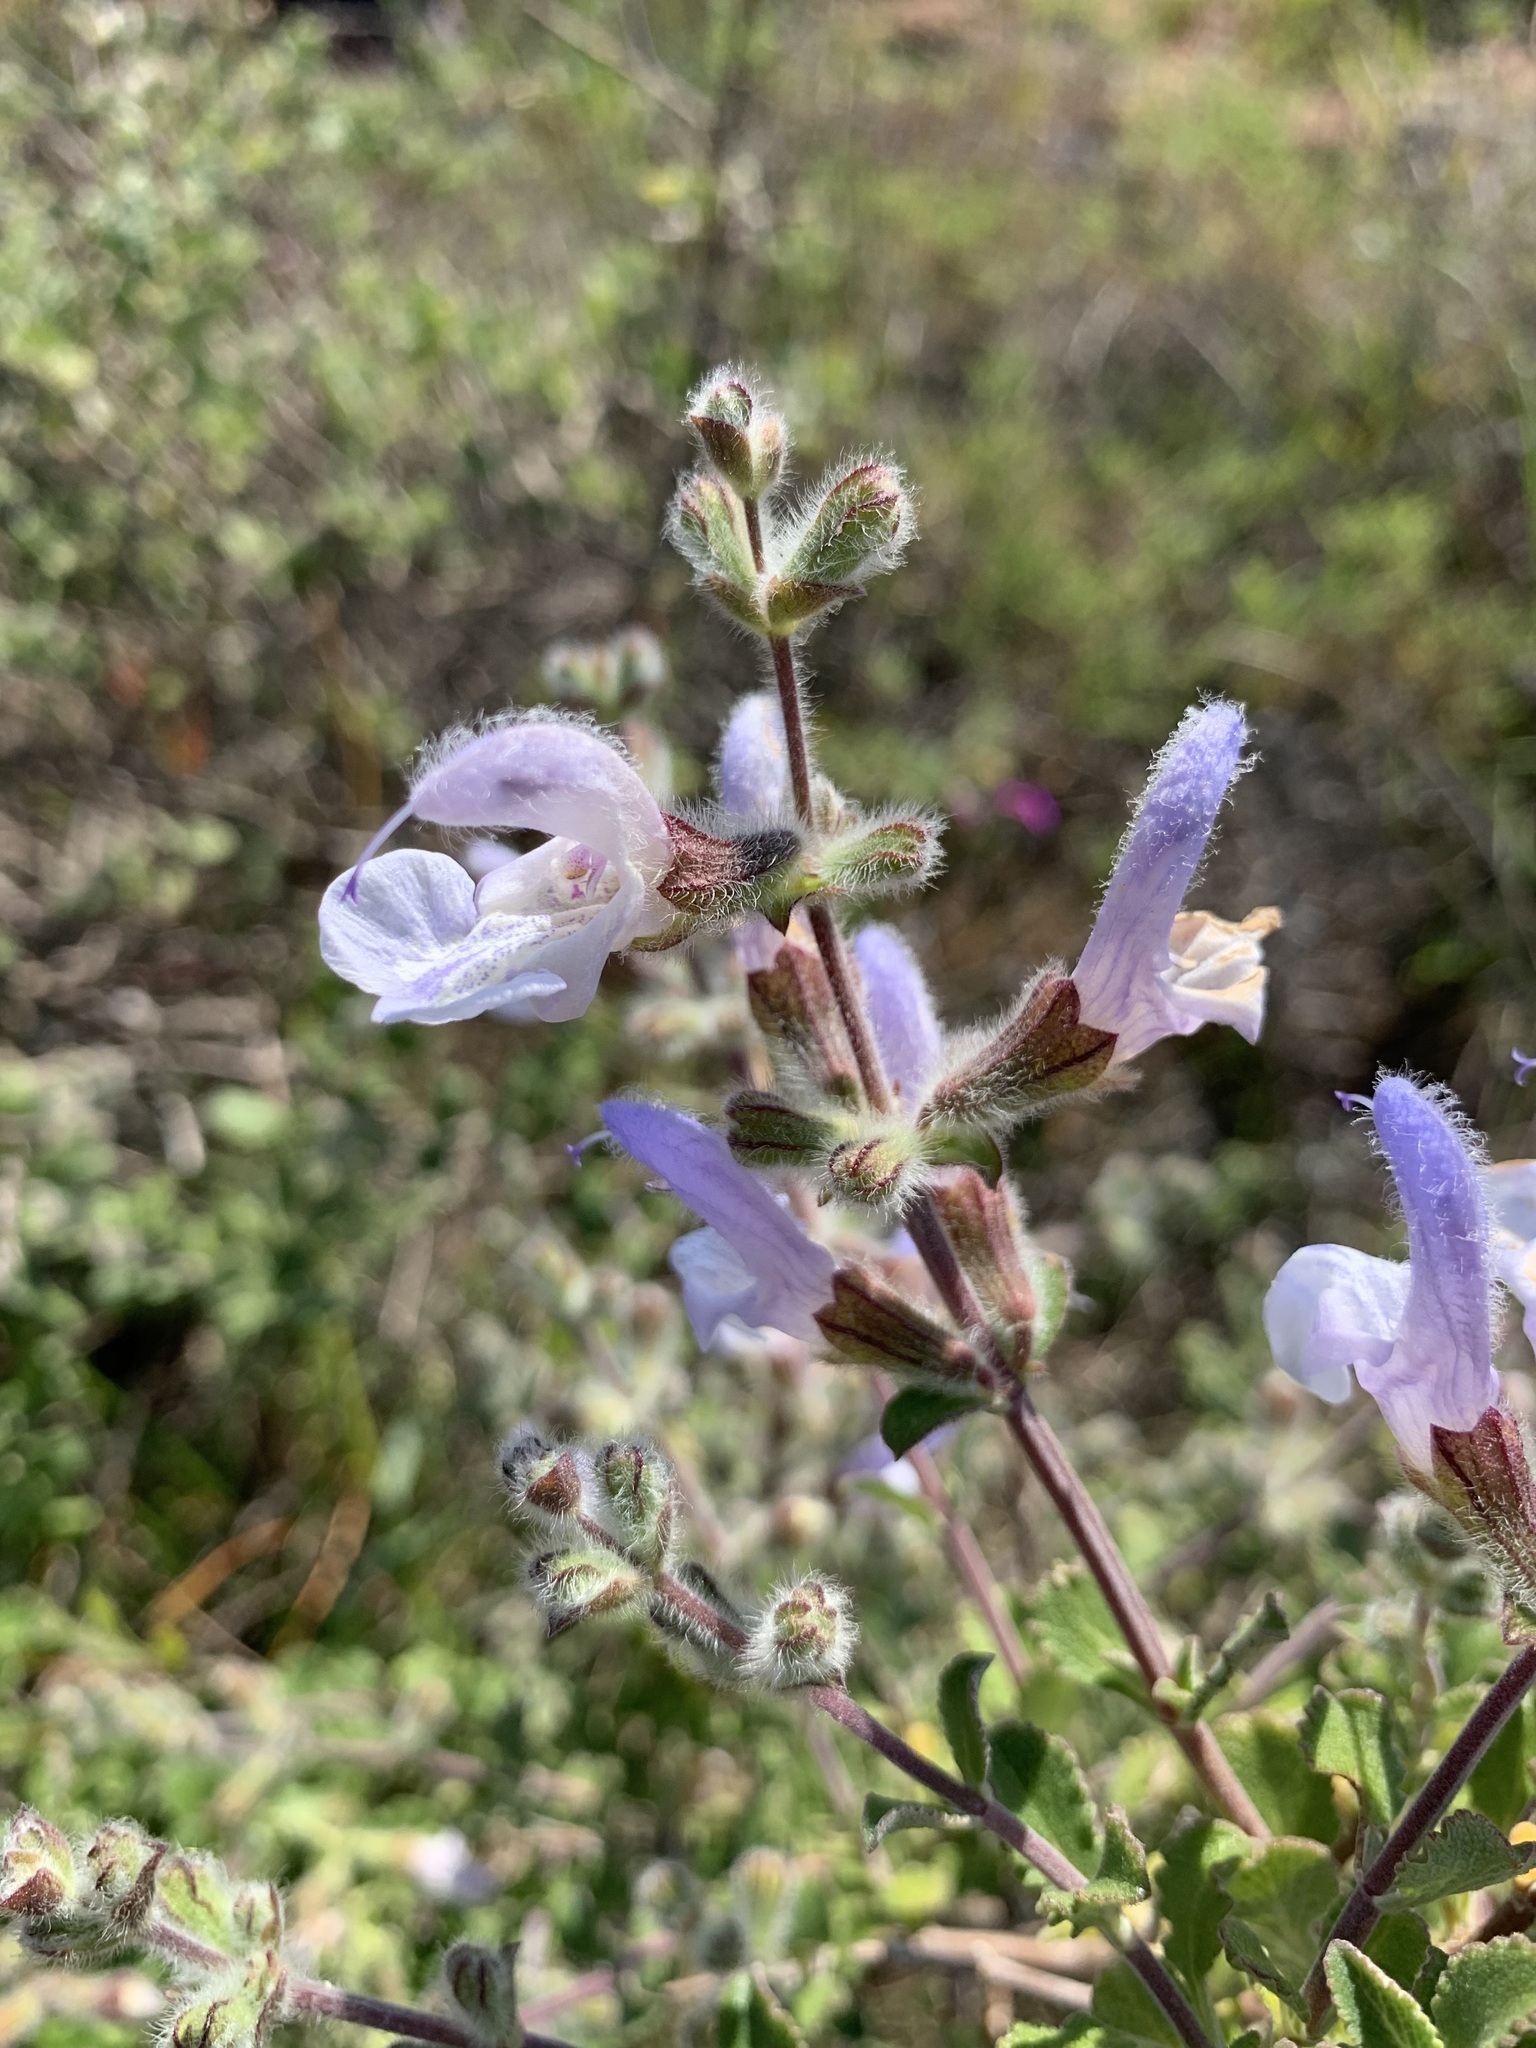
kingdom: Plantae
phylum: Tracheophyta
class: Magnoliopsida
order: Lamiales
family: Lamiaceae
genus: Salvia
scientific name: Salvia africana
